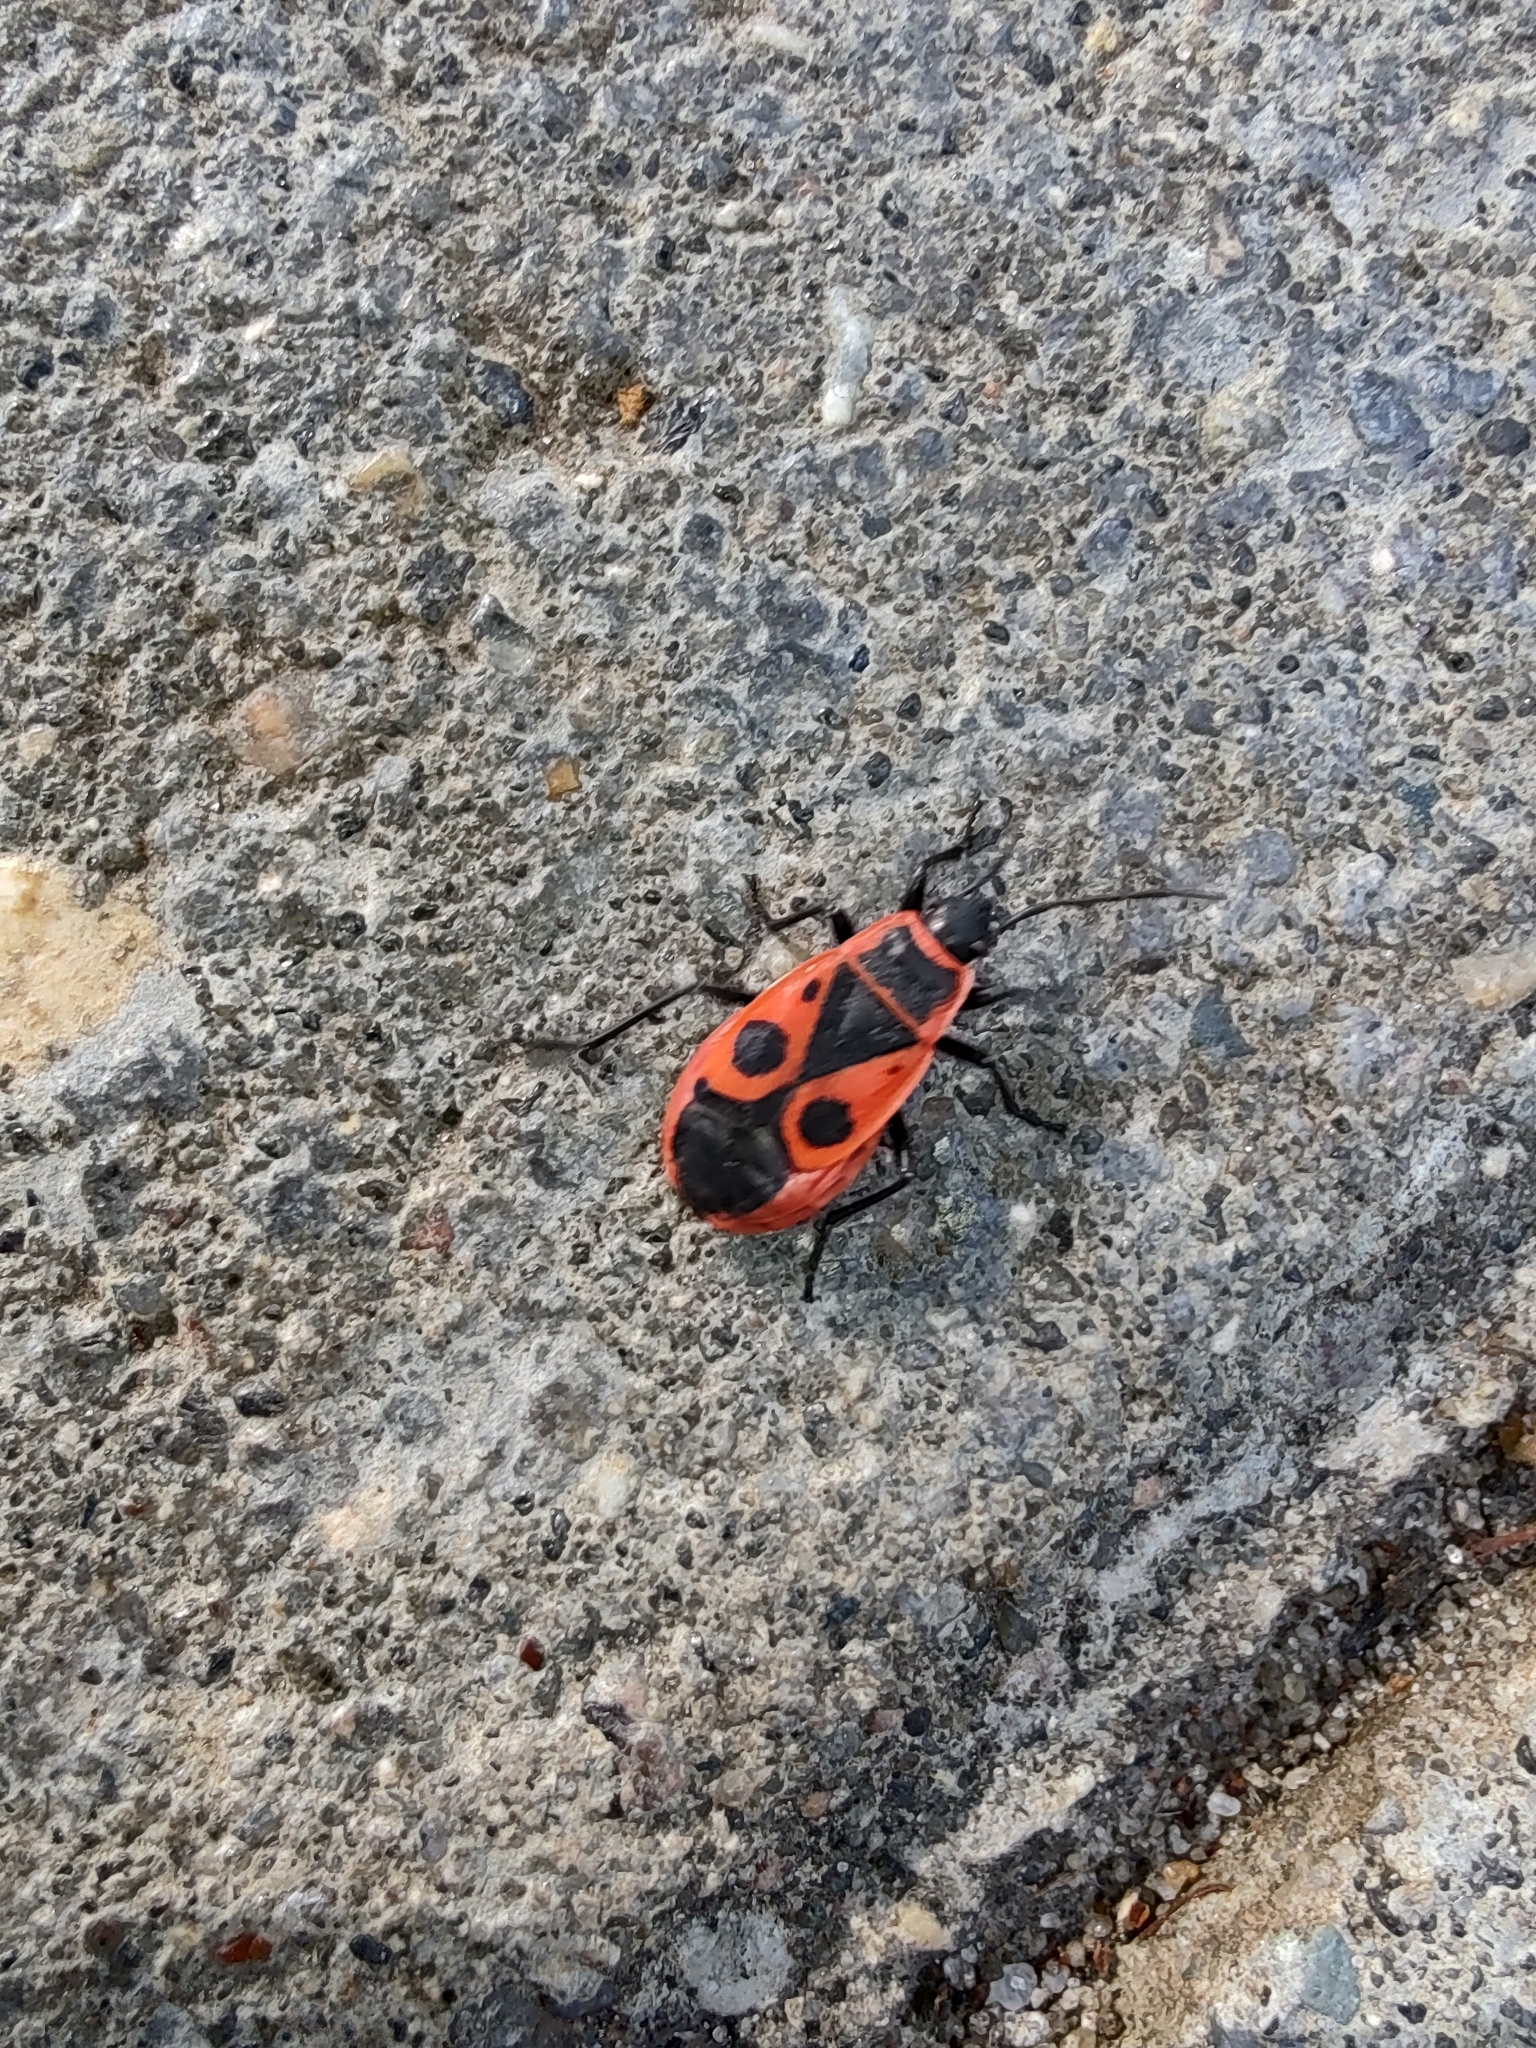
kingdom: Animalia
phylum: Arthropoda
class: Insecta
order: Hemiptera
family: Pyrrhocoridae
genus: Pyrrhocoris
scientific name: Pyrrhocoris apterus
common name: Firebug
